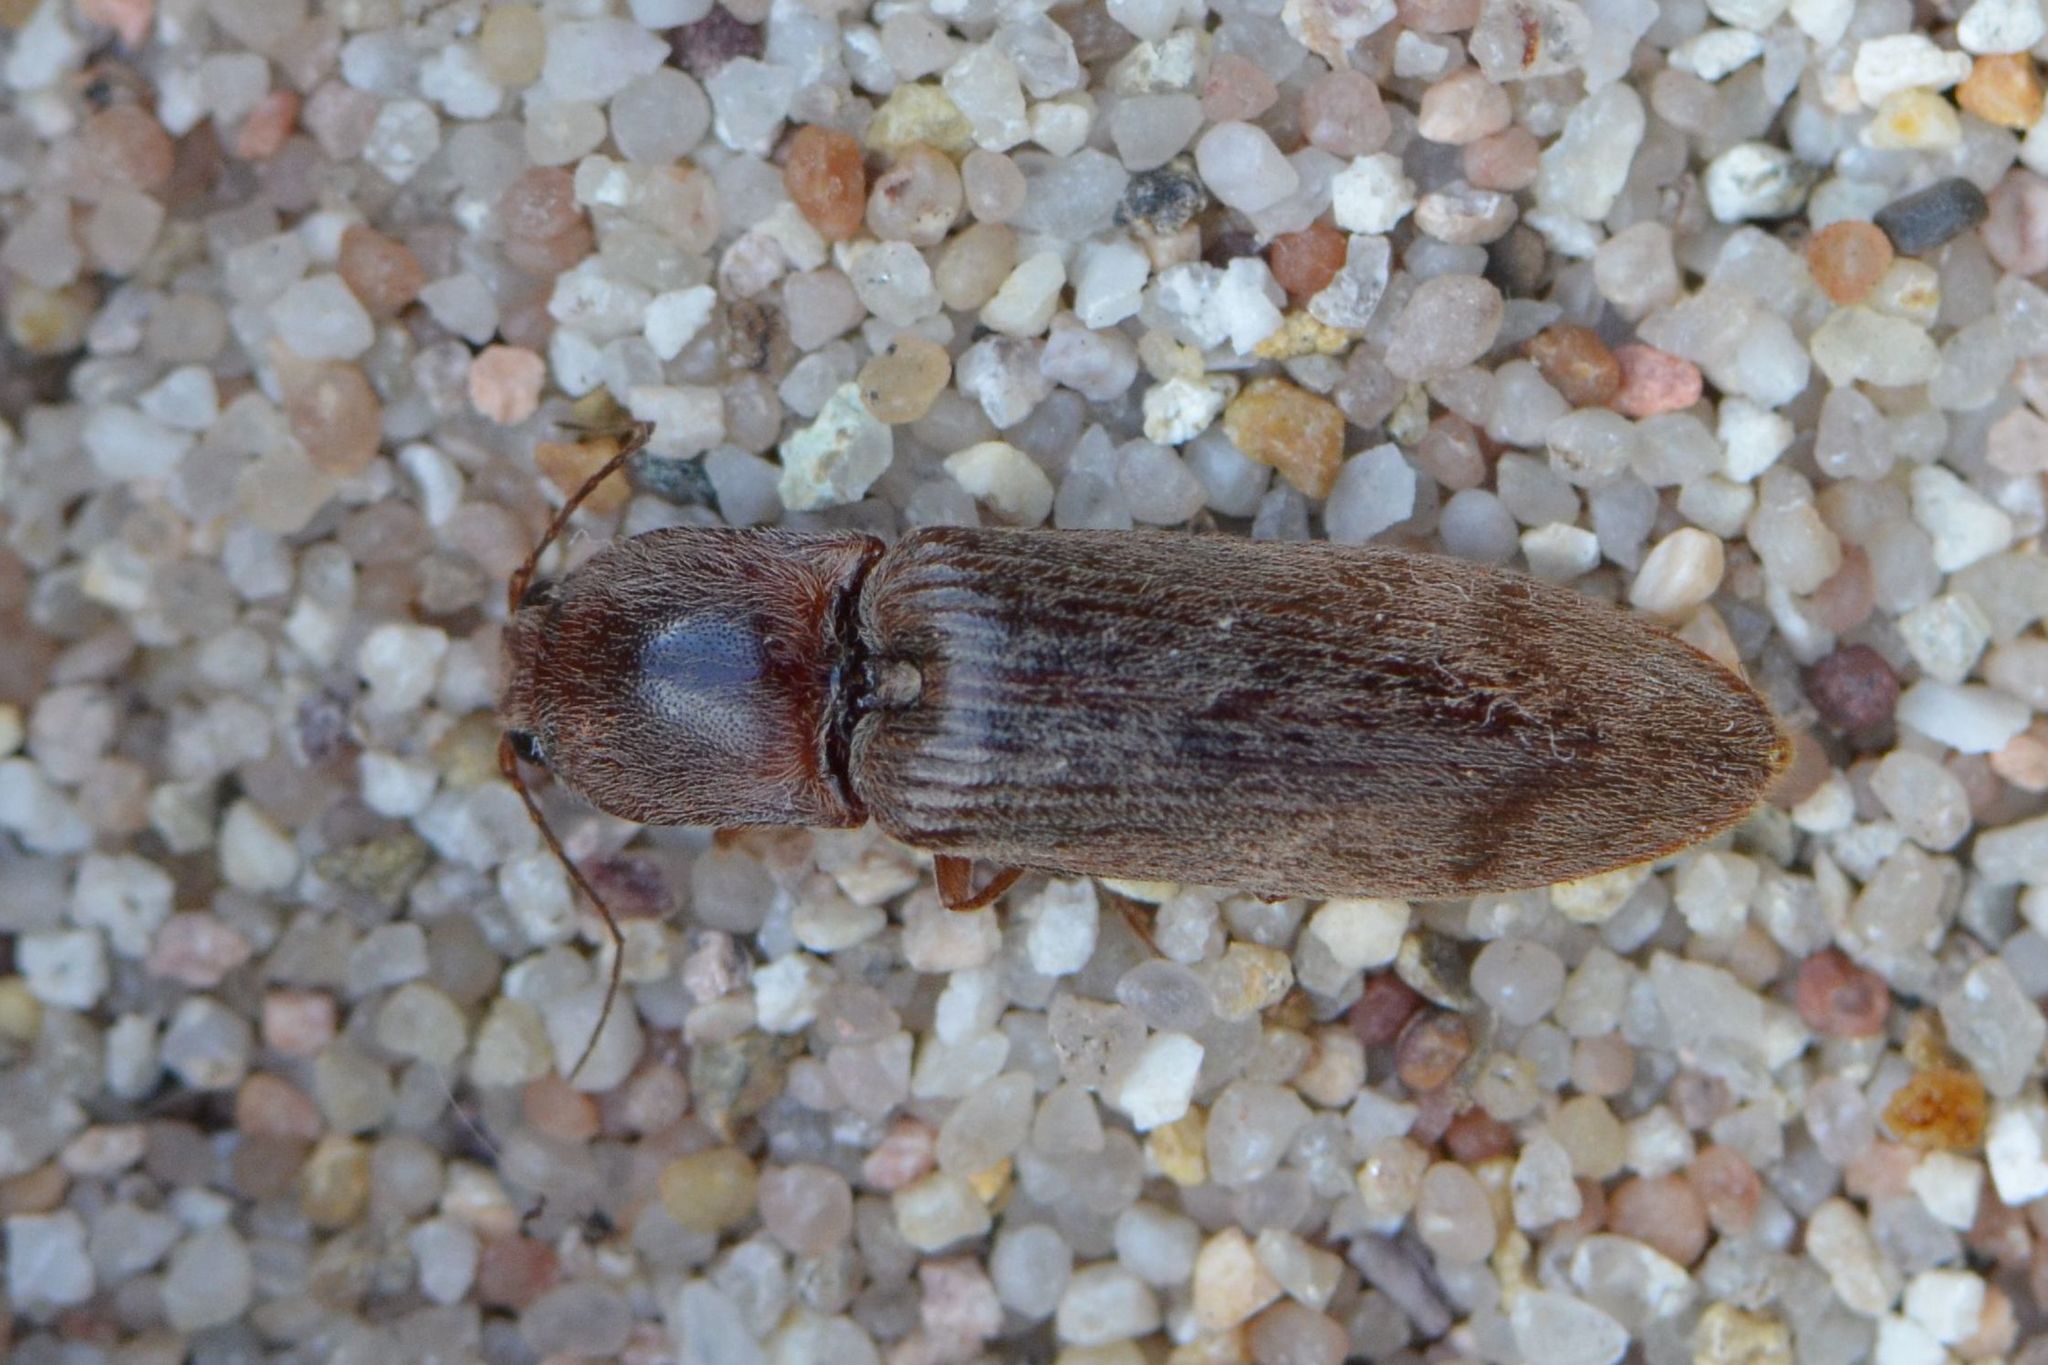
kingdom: Animalia
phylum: Arthropoda
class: Insecta
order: Coleoptera
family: Elateridae
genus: Stenagostus
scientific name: Stenagostus rhombeus
